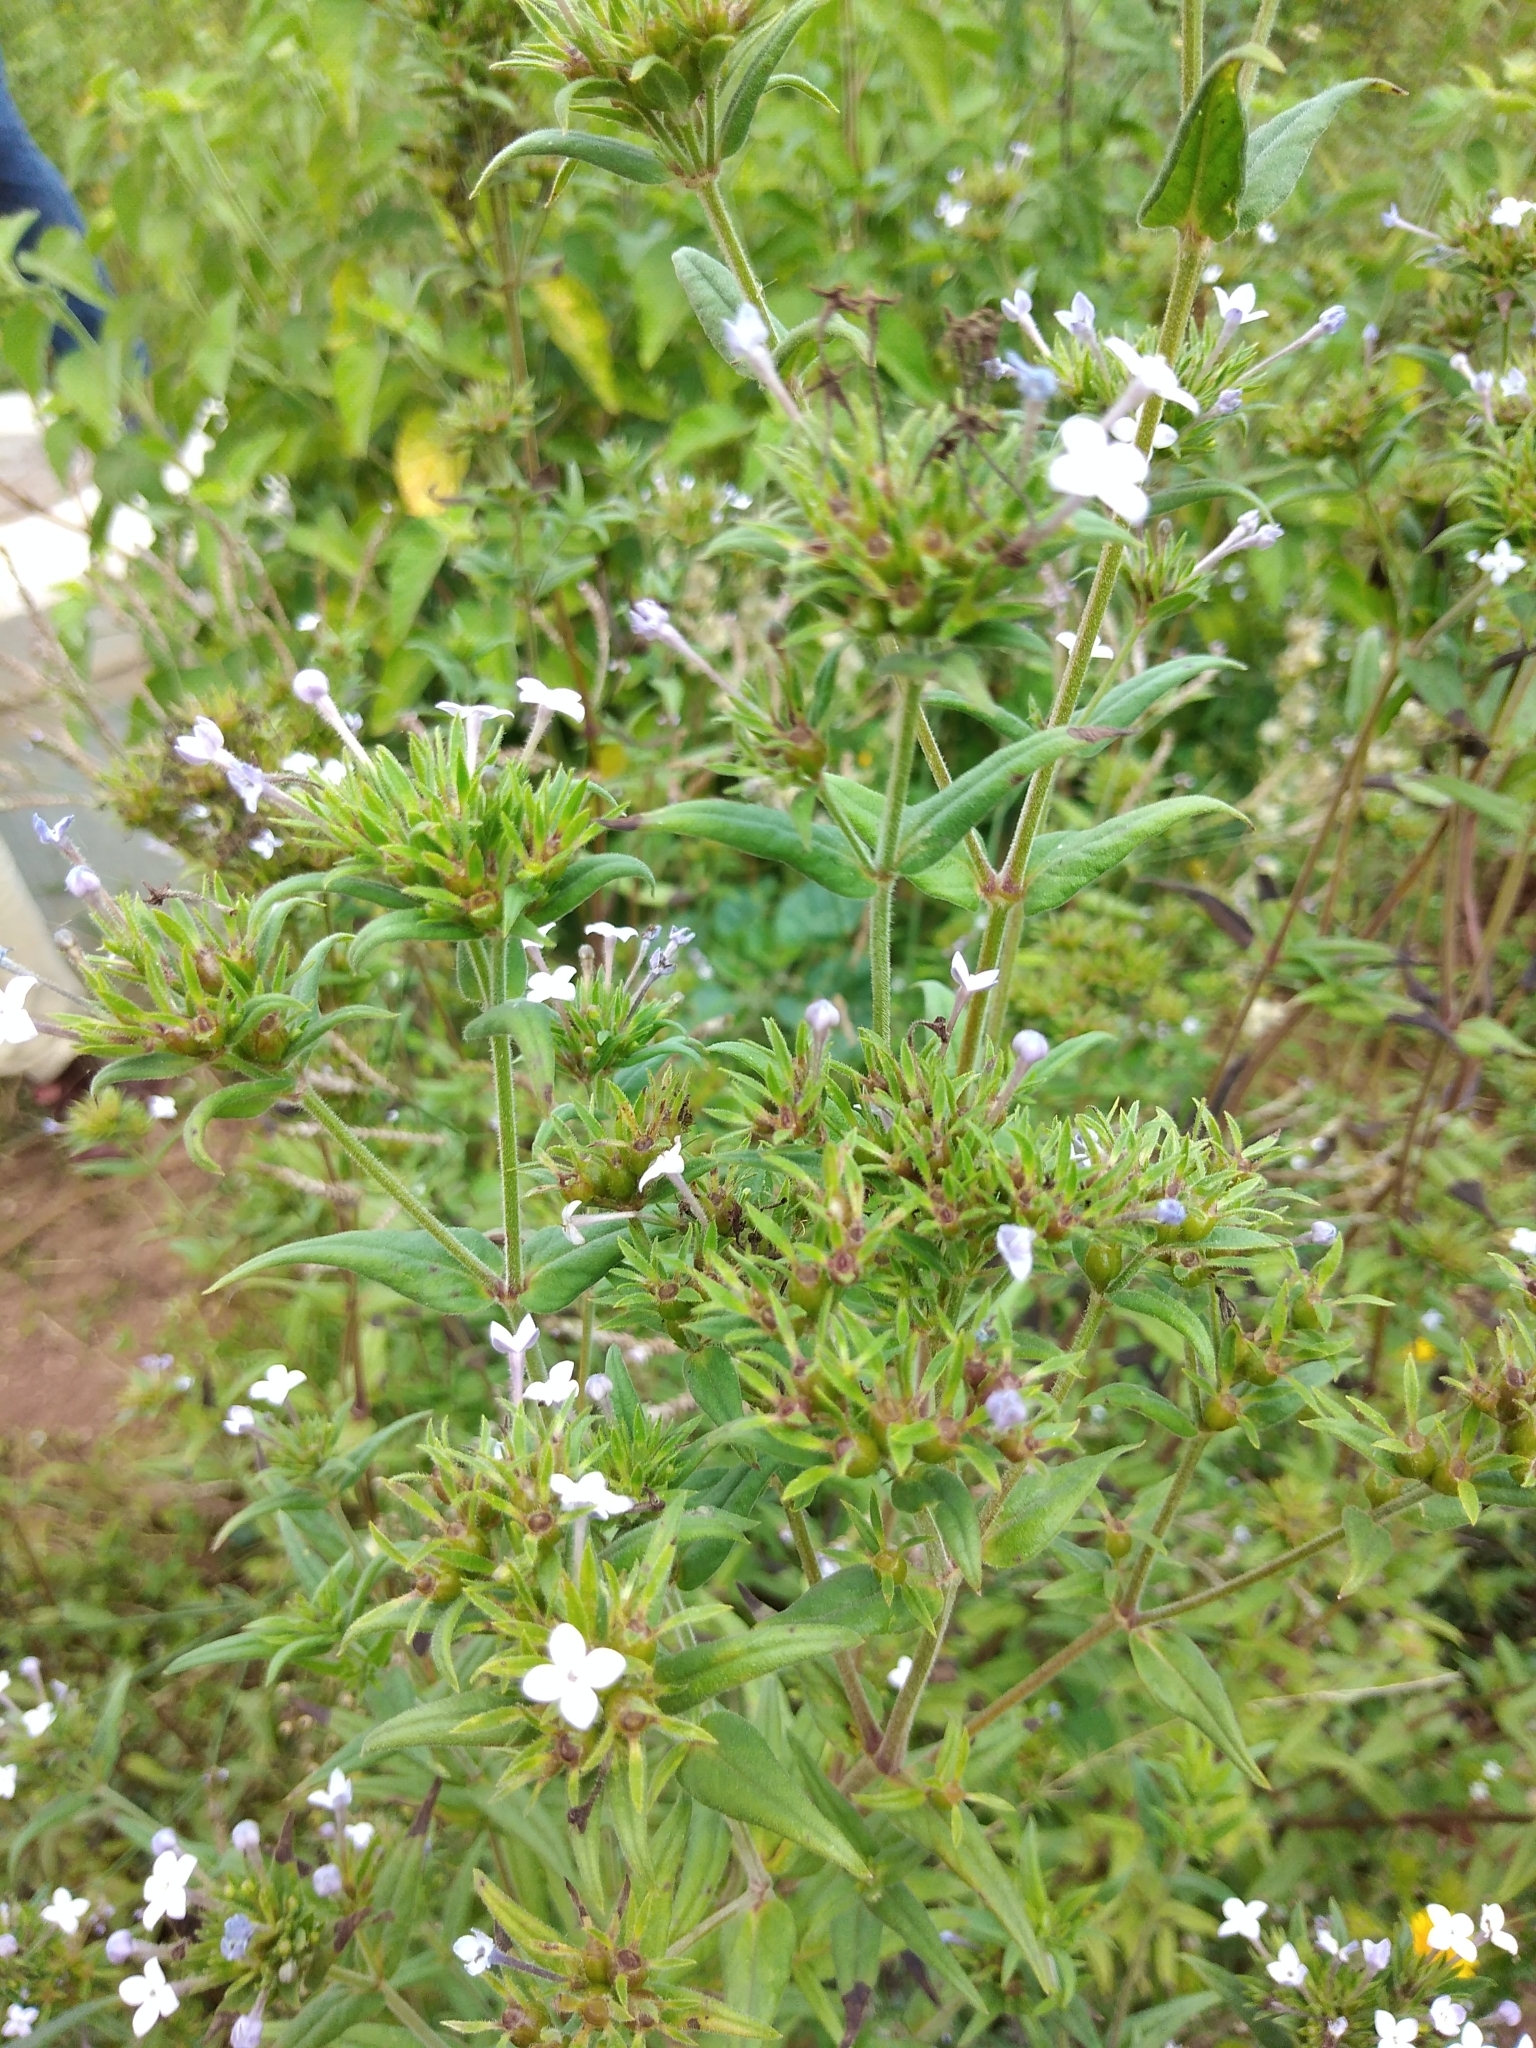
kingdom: Plantae
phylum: Tracheophyta
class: Magnoliopsida
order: Gentianales
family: Rubiaceae
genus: Conostomium
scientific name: Conostomium natalense
